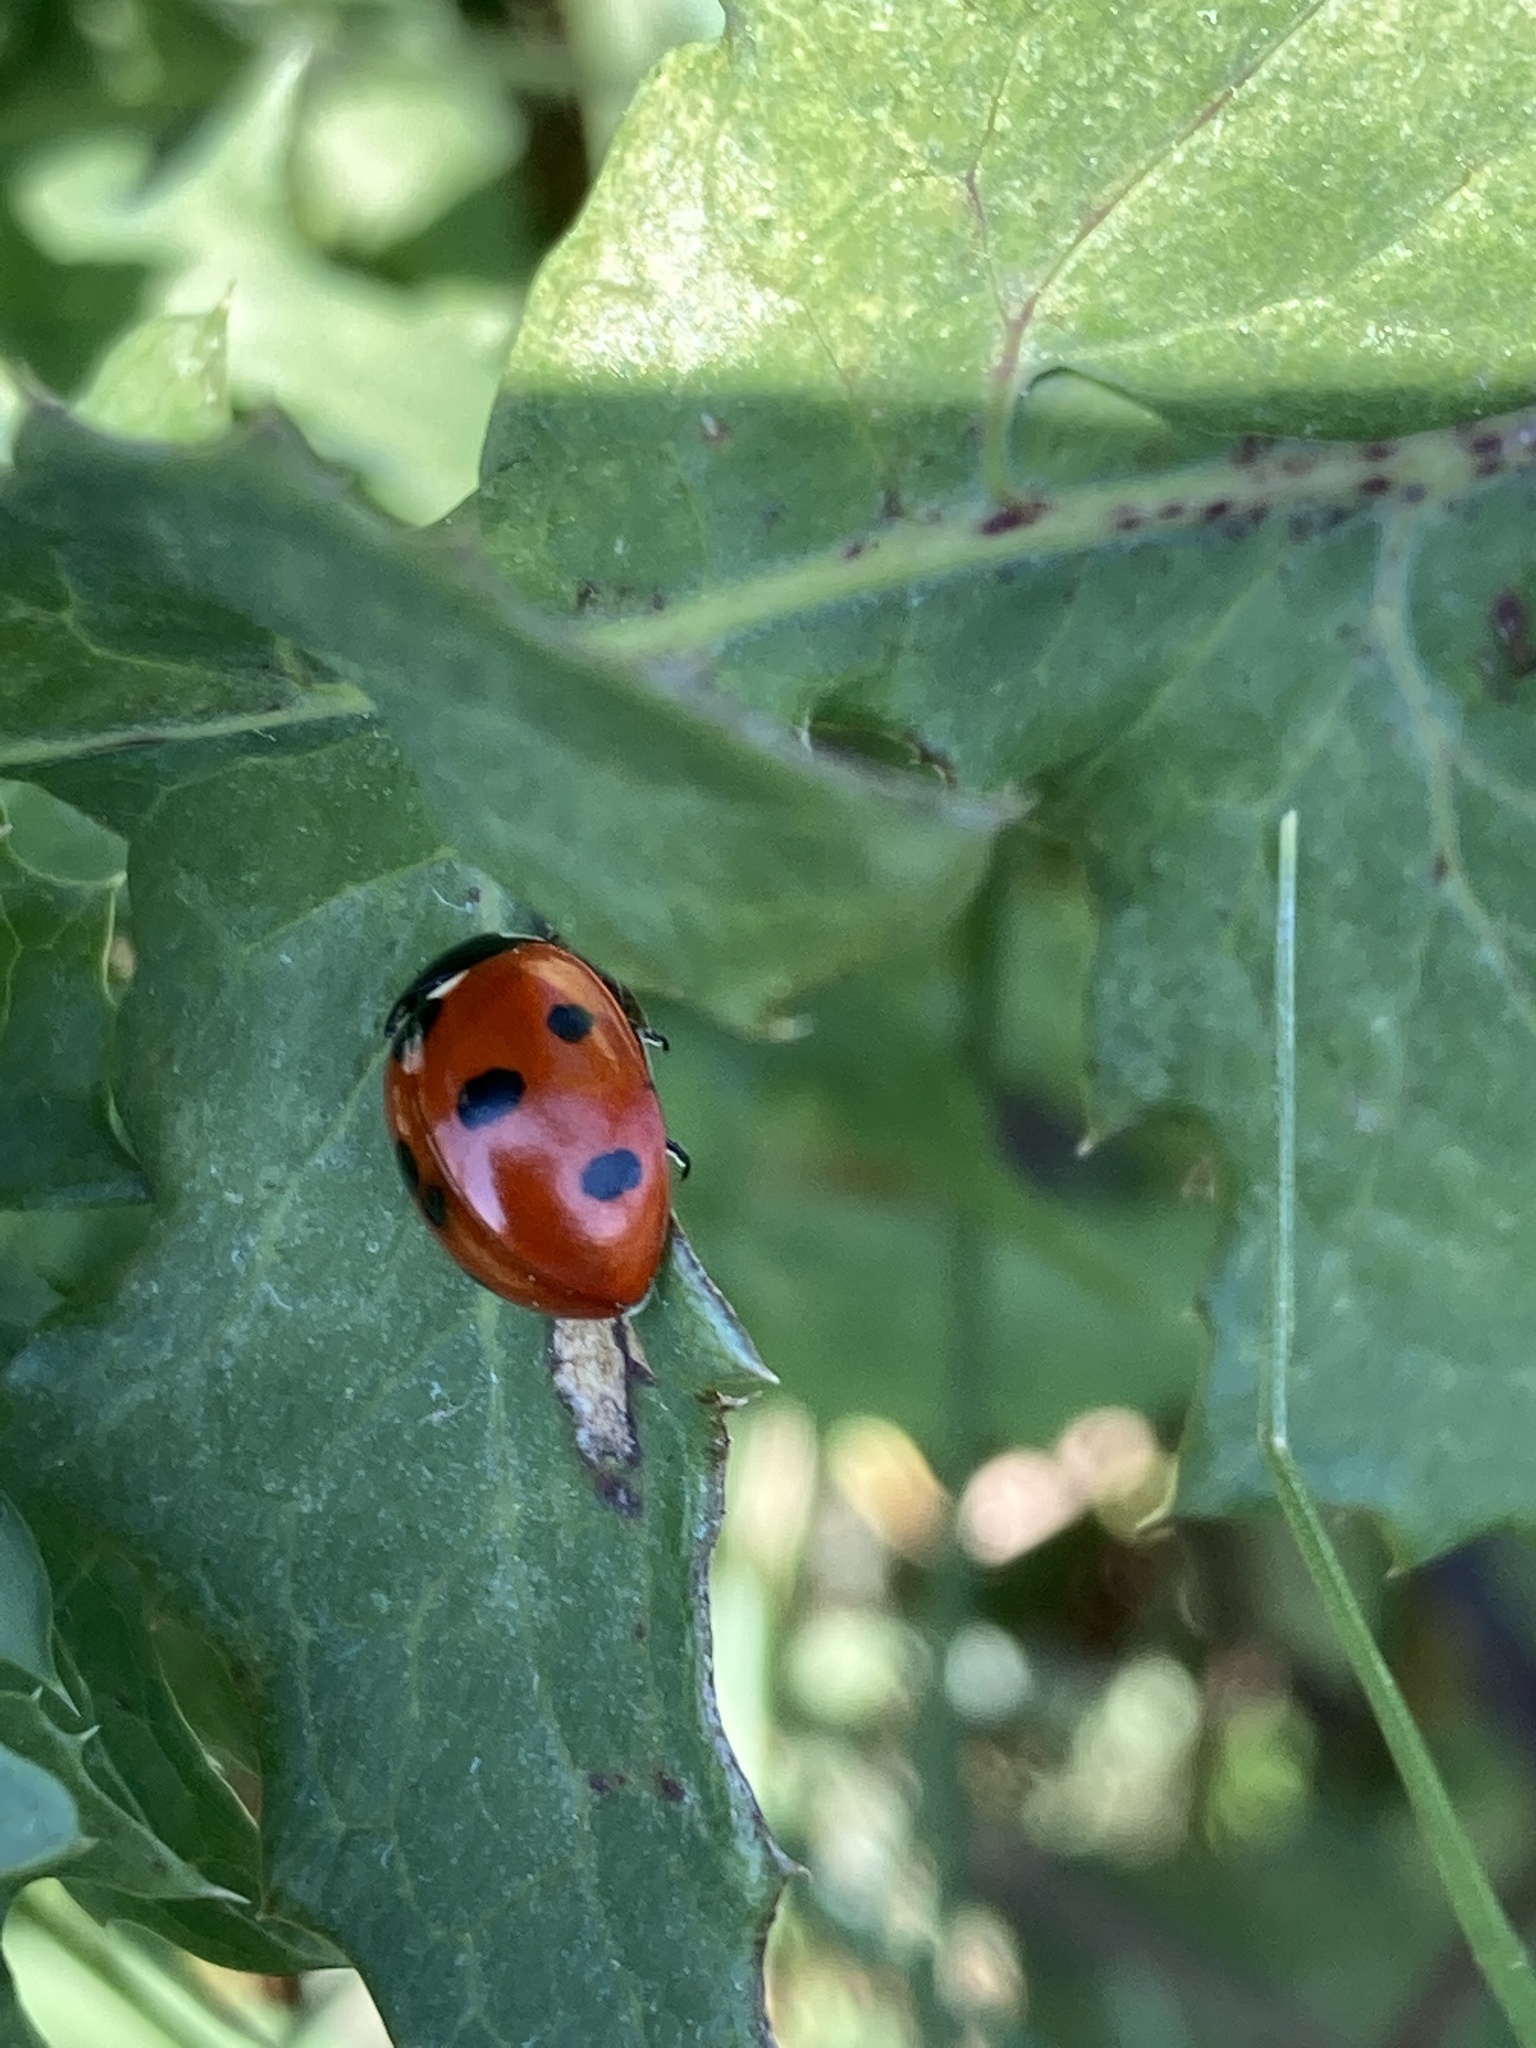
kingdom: Animalia
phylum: Arthropoda
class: Insecta
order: Coleoptera
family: Coccinellidae
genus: Coccinella
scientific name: Coccinella septempunctata
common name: Sevenspotted lady beetle
